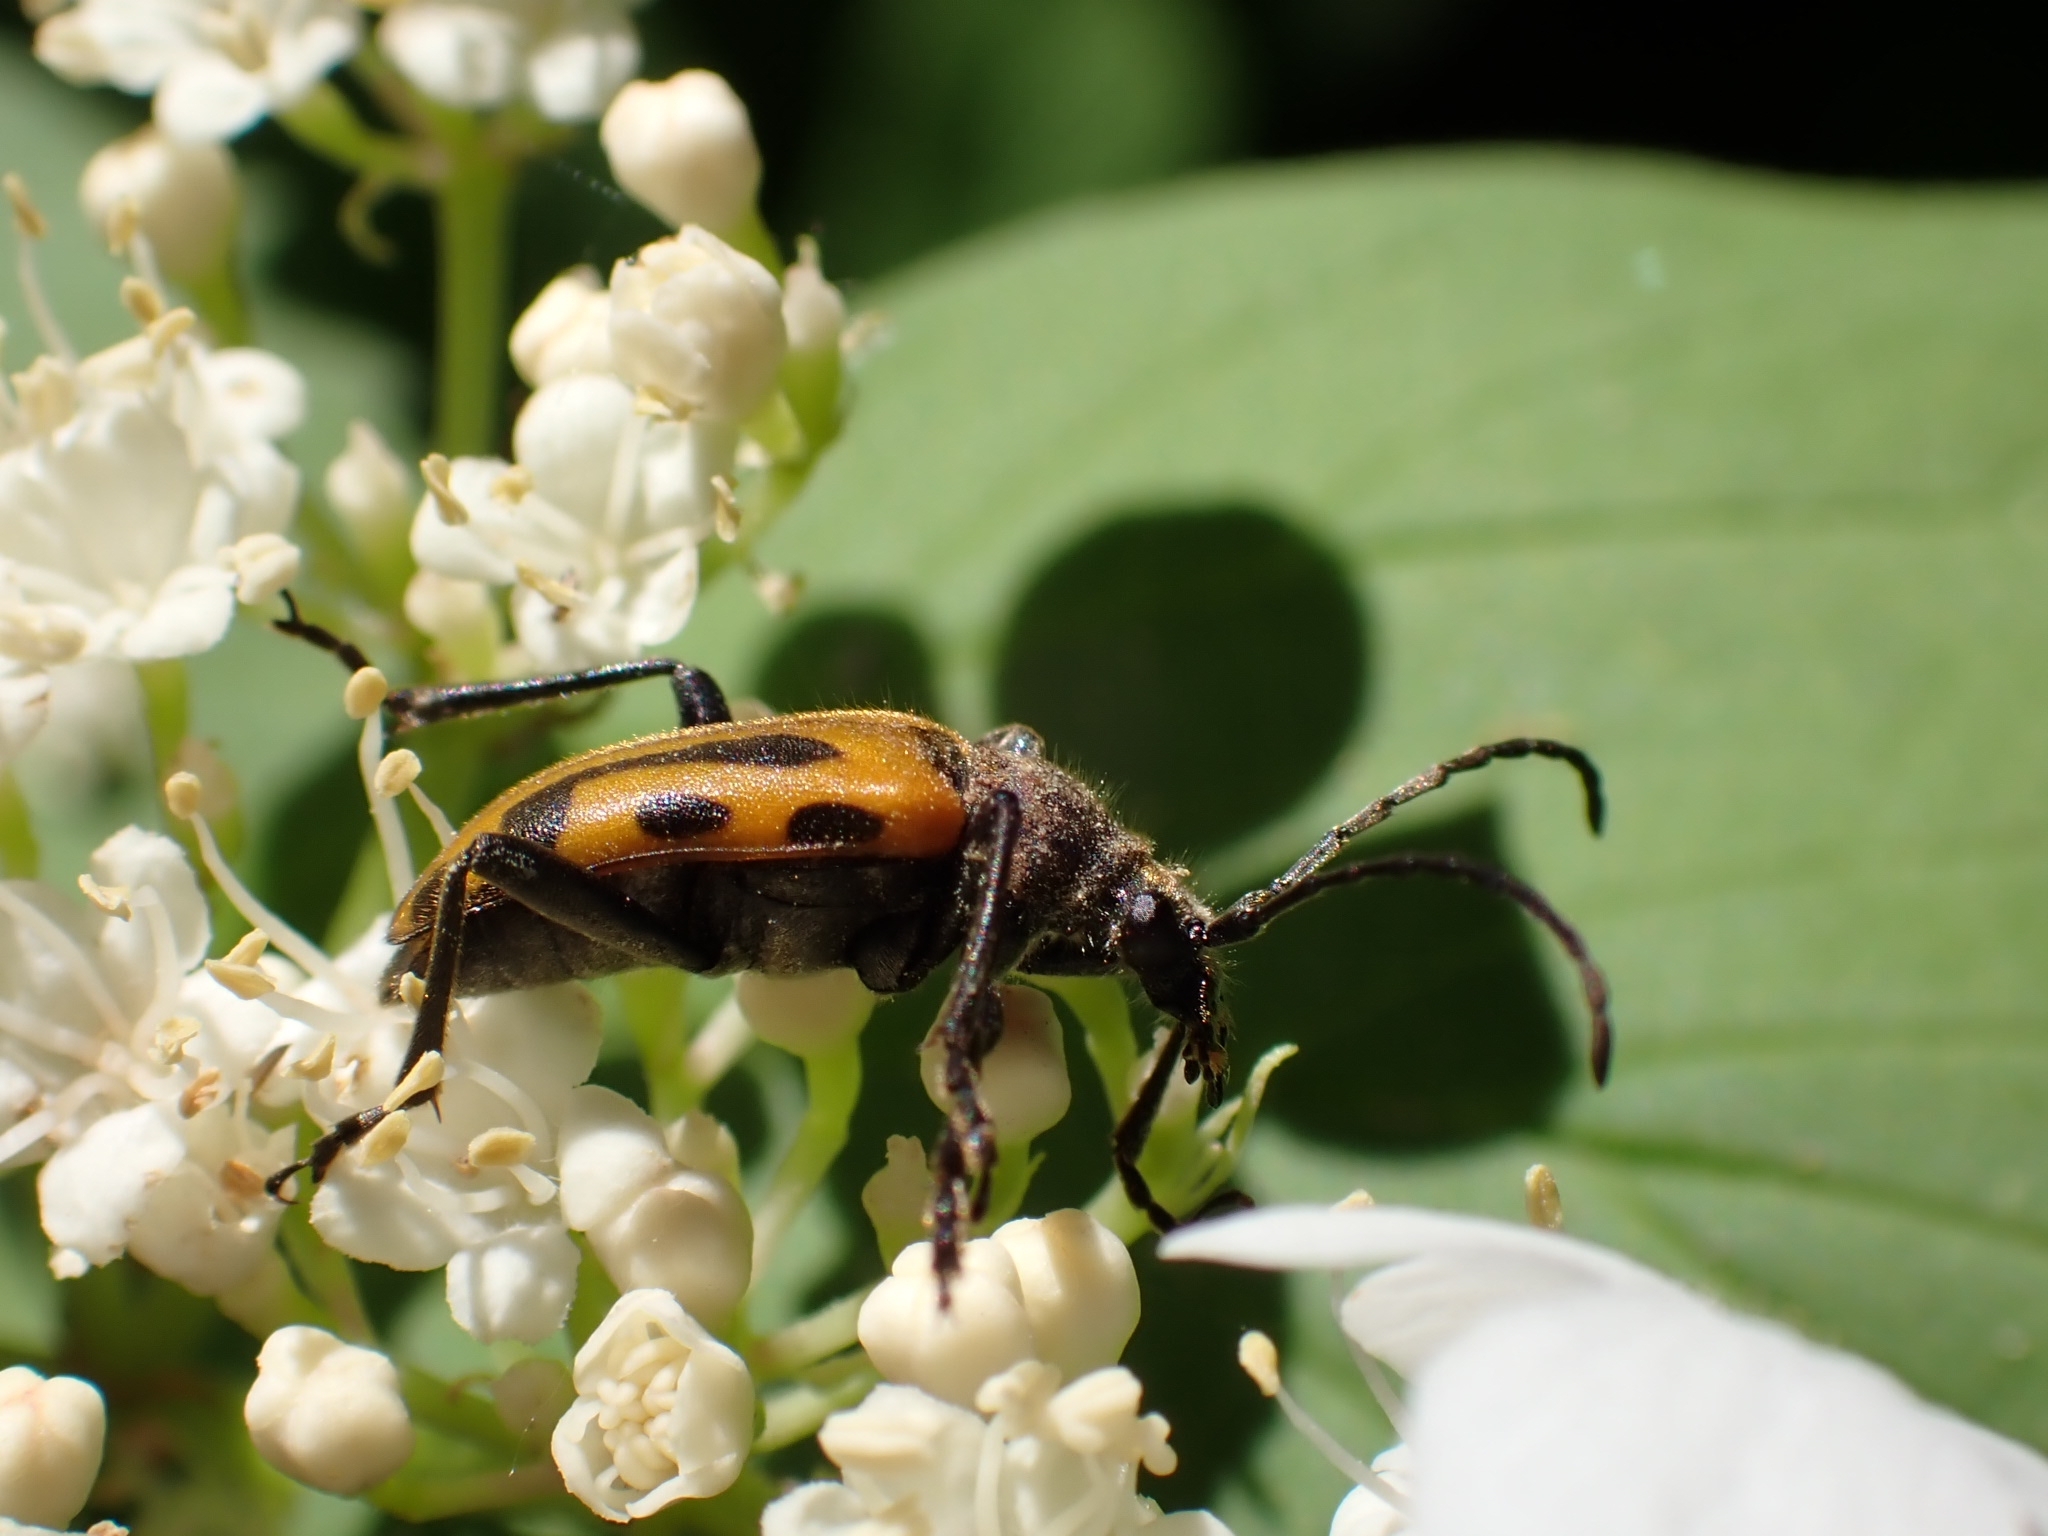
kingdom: Animalia
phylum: Arthropoda
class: Insecta
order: Coleoptera
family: Cerambycidae
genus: Brachyta
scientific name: Brachyta interrogationis
